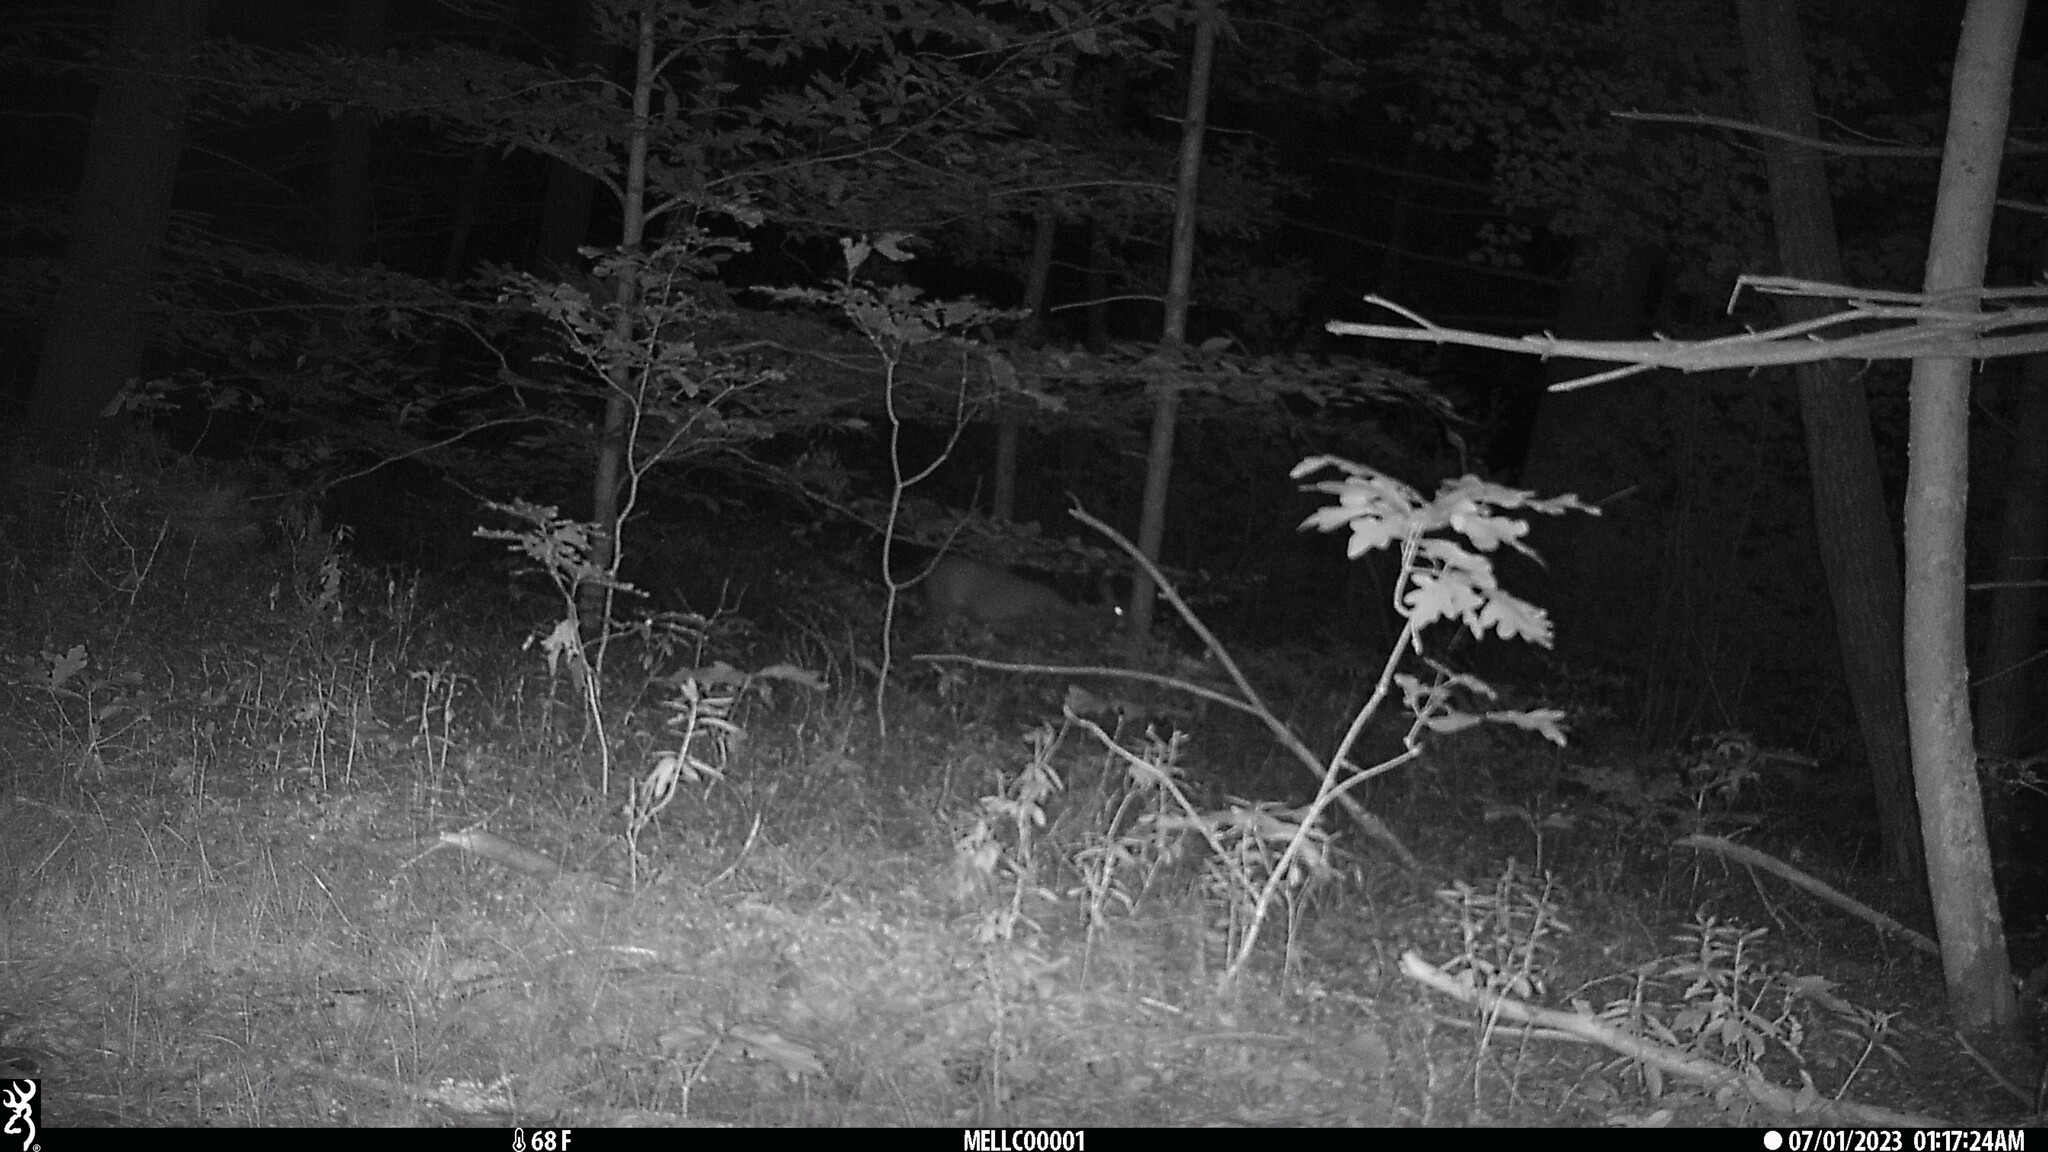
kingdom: Animalia
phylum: Chordata
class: Mammalia
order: Artiodactyla
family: Cervidae
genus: Odocoileus
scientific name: Odocoileus virginianus
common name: White-tailed deer
